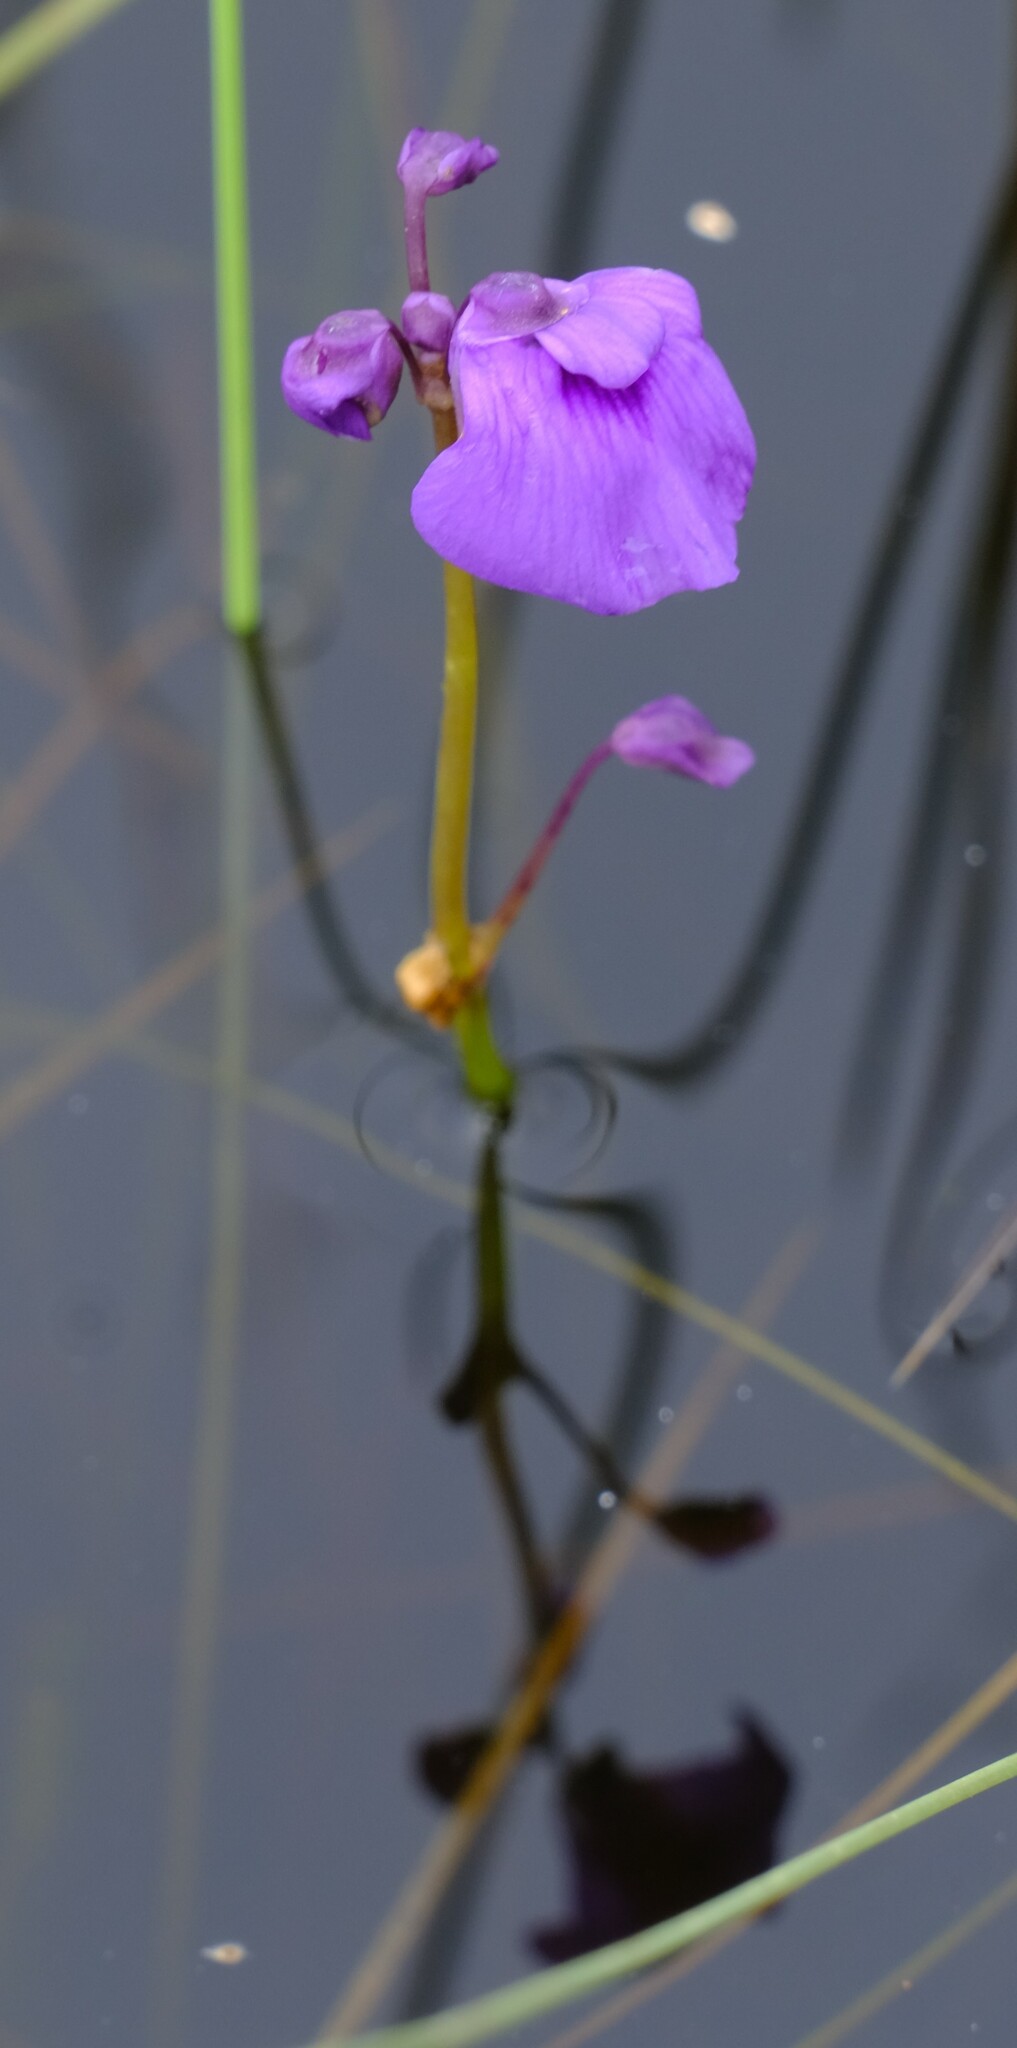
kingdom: Plantae
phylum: Tracheophyta
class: Magnoliopsida
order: Lamiales
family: Lentibulariaceae
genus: Utricularia
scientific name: Utricularia beaugleholei
